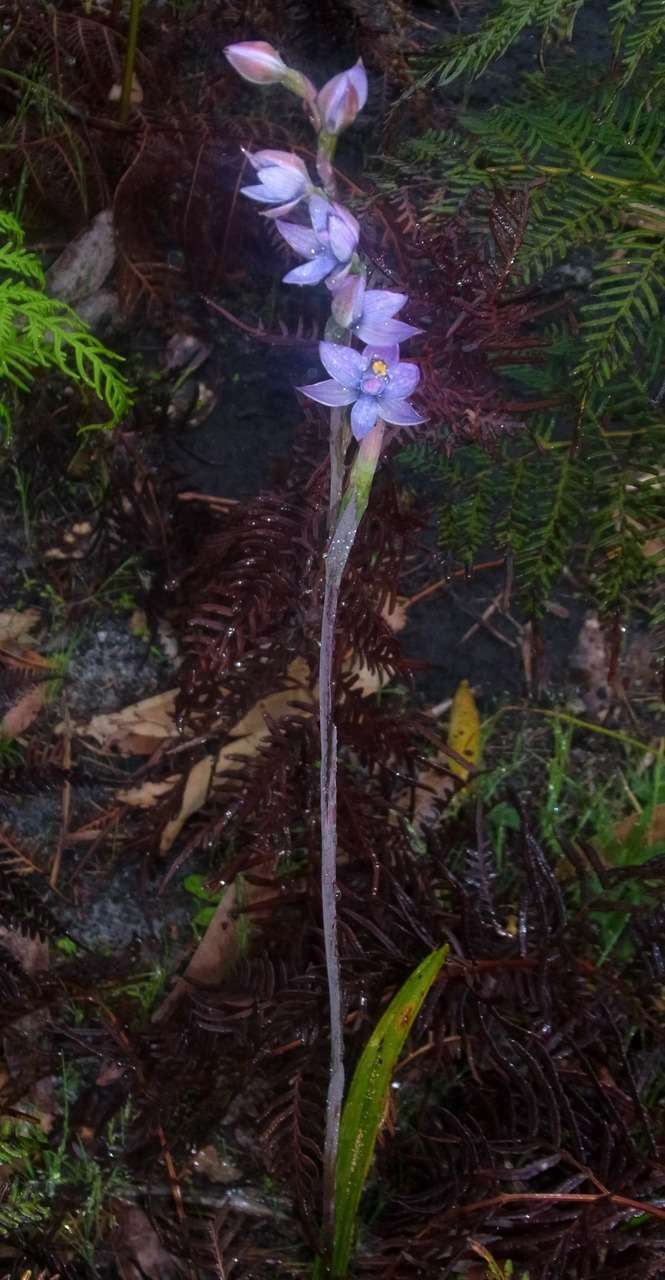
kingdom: Plantae
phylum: Tracheophyta
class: Liliopsida
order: Asparagales
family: Orchidaceae
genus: Thelymitra
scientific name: Thelymitra malvina
